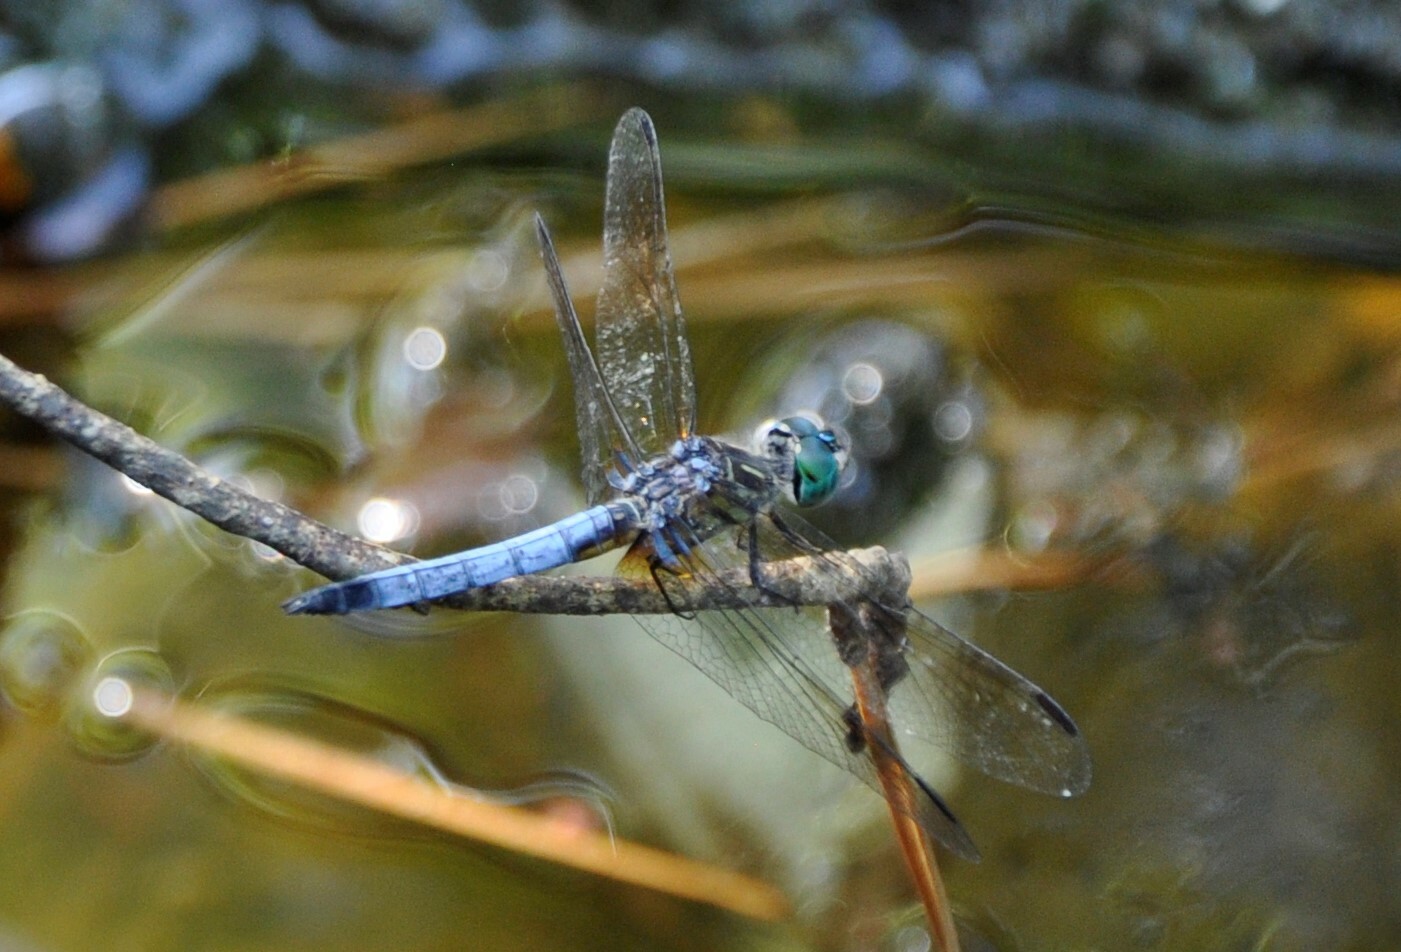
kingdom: Animalia
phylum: Arthropoda
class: Insecta
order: Odonata
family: Libellulidae
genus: Pachydiplax
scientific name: Pachydiplax longipennis
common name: Blue dasher
